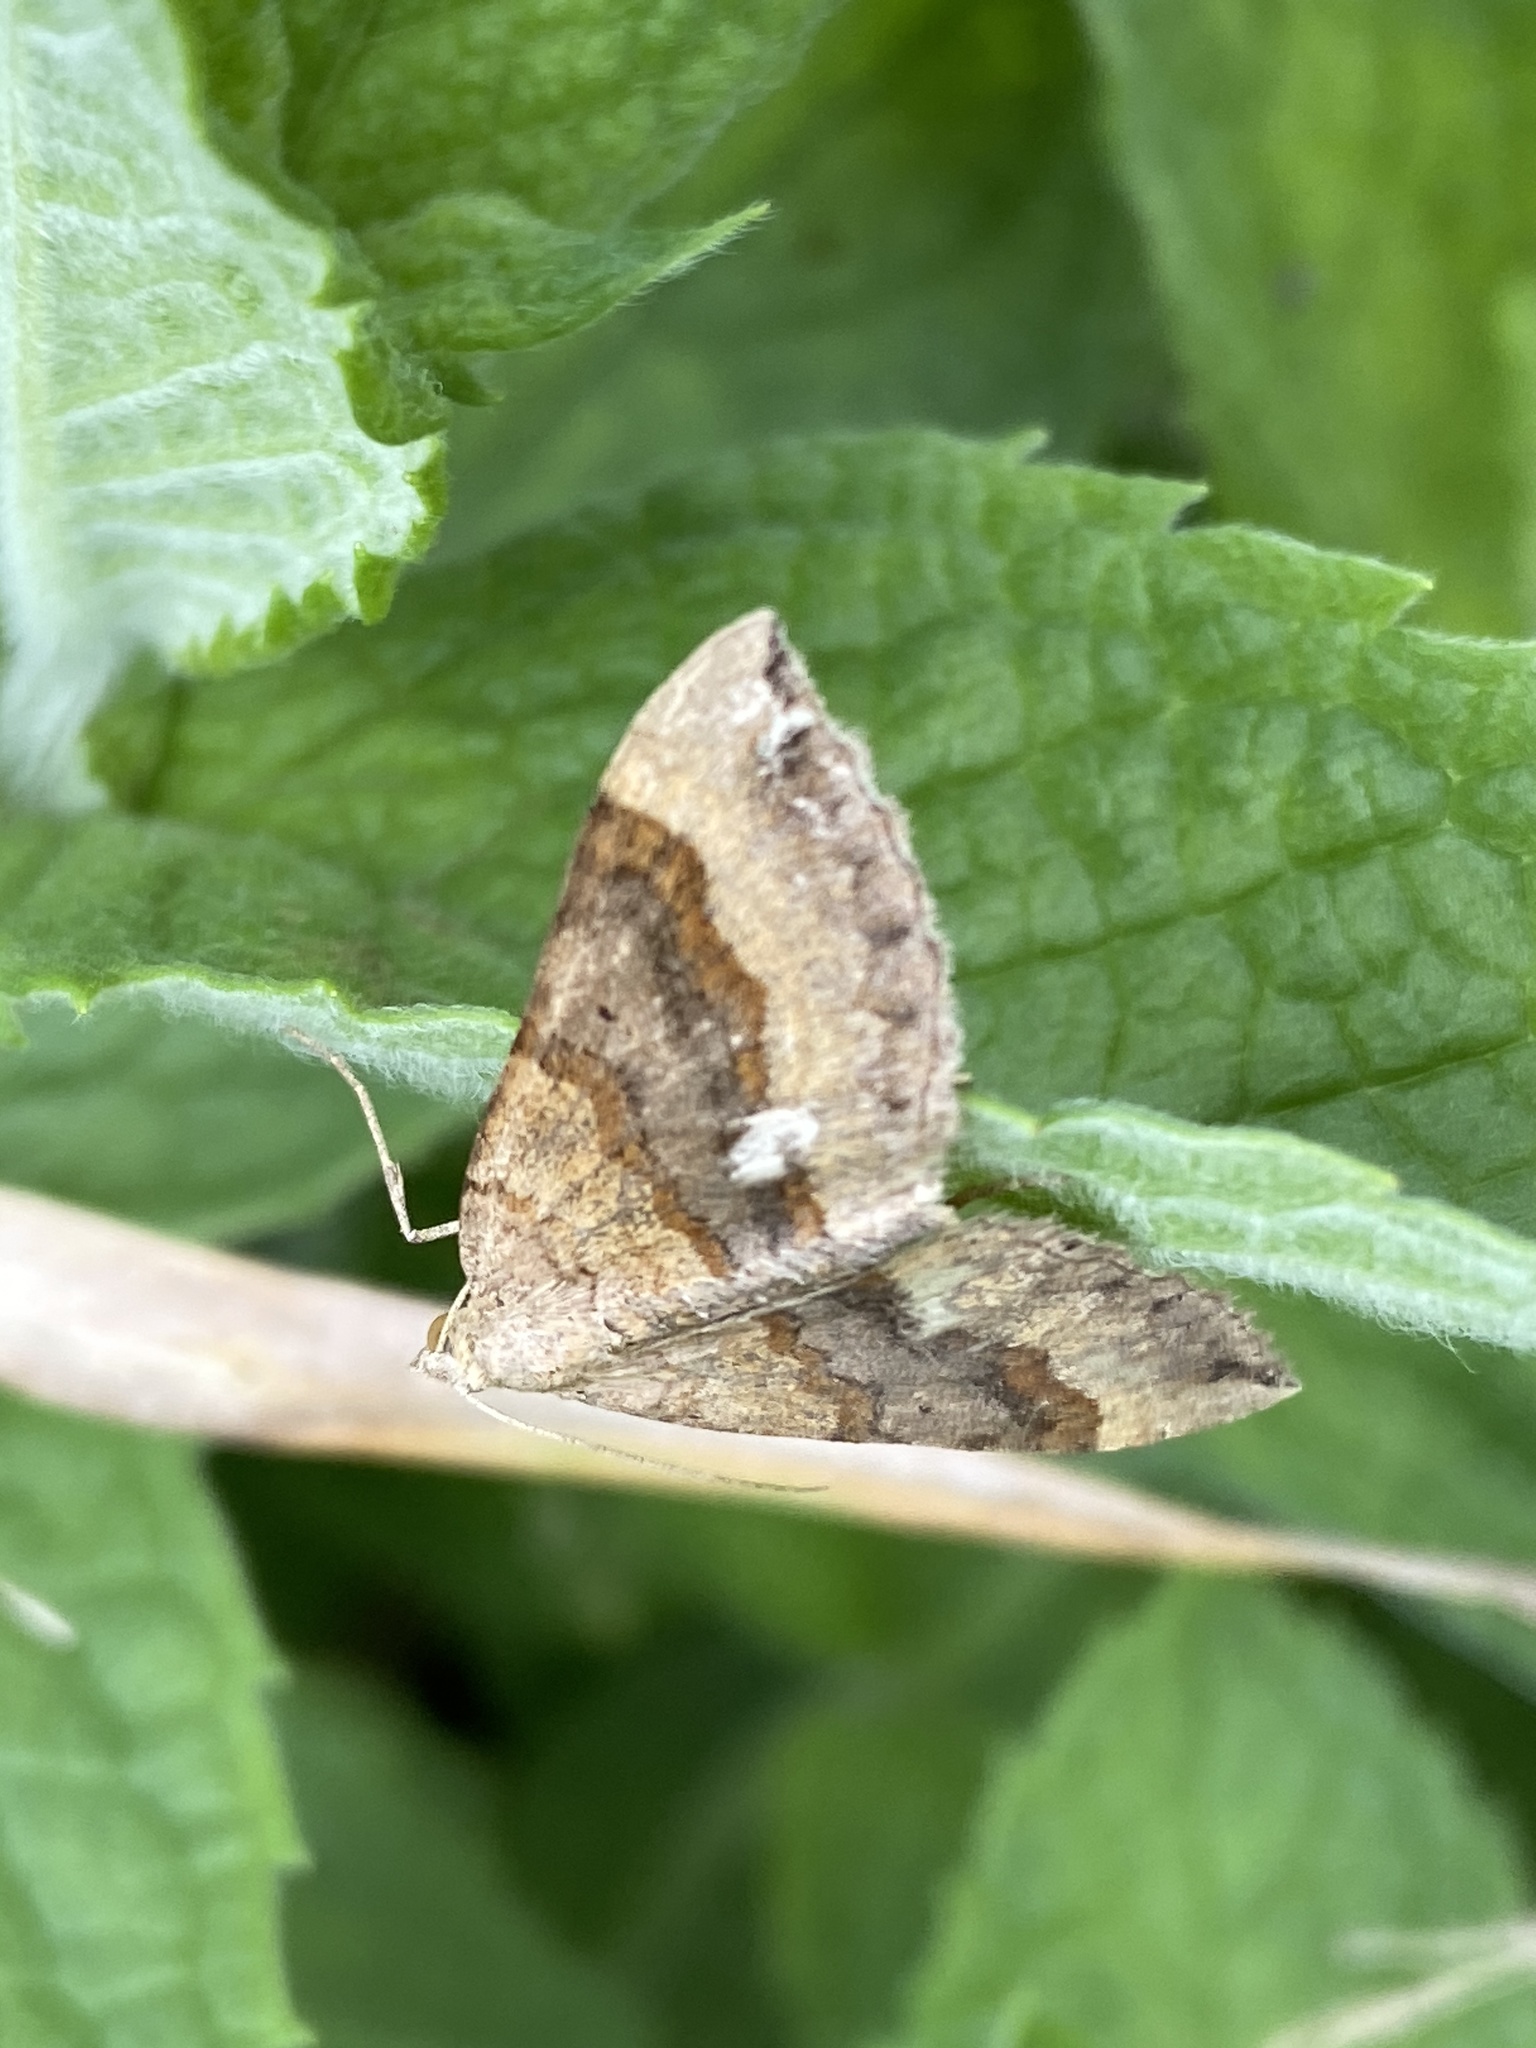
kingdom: Animalia
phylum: Arthropoda
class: Insecta
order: Lepidoptera
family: Geometridae
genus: Scotopteryx
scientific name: Scotopteryx chenopodiata
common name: Shaded broad-bar
